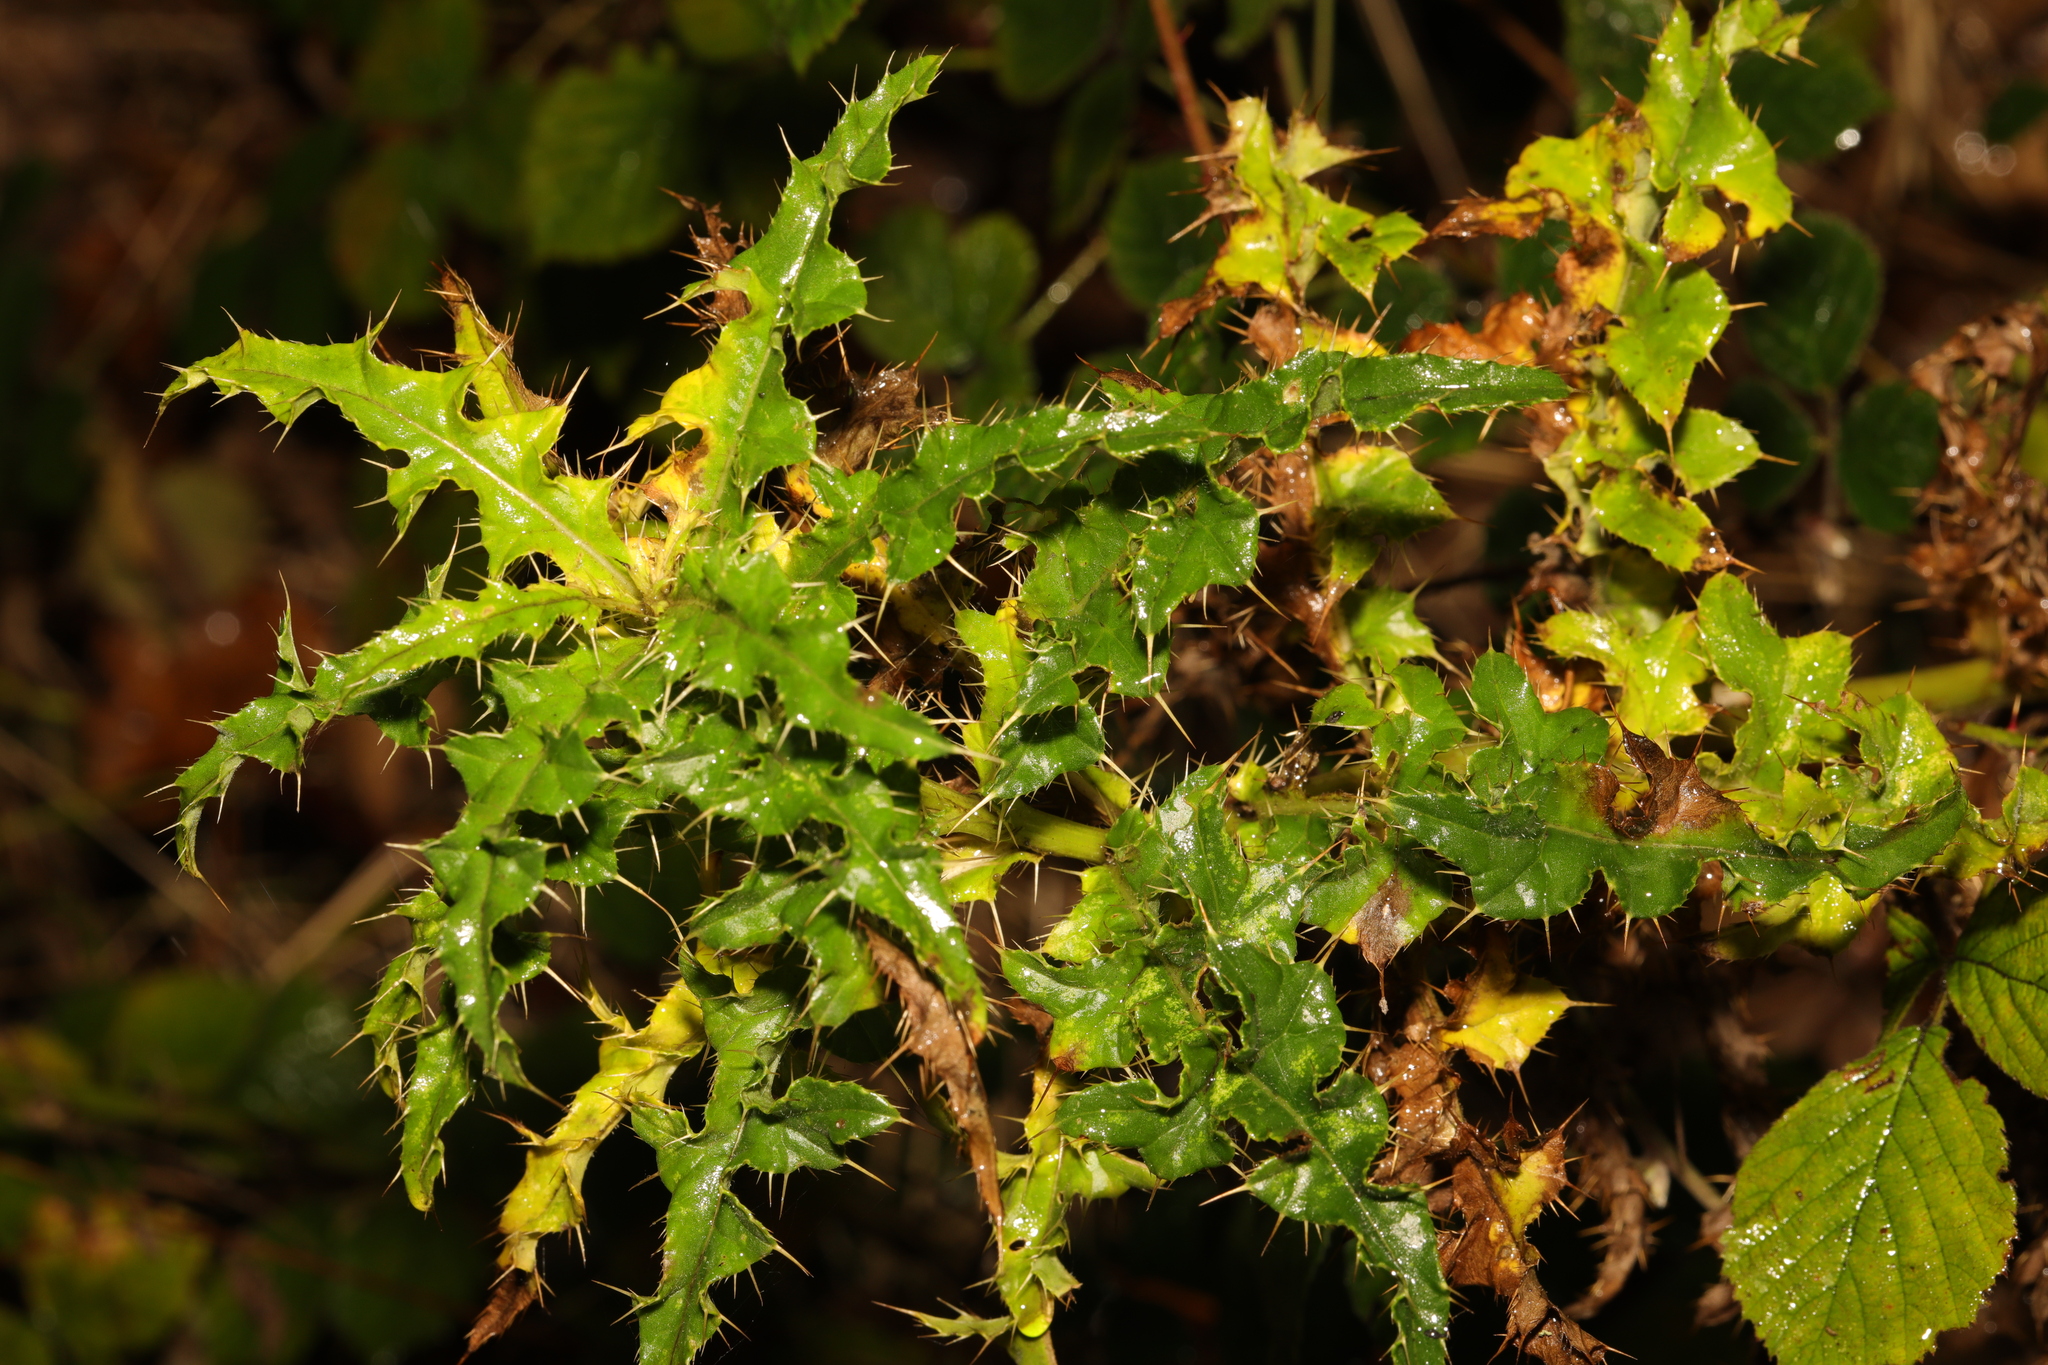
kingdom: Plantae
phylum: Tracheophyta
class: Magnoliopsida
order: Asterales
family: Asteraceae
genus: Cirsium
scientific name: Cirsium arvense
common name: Creeping thistle
